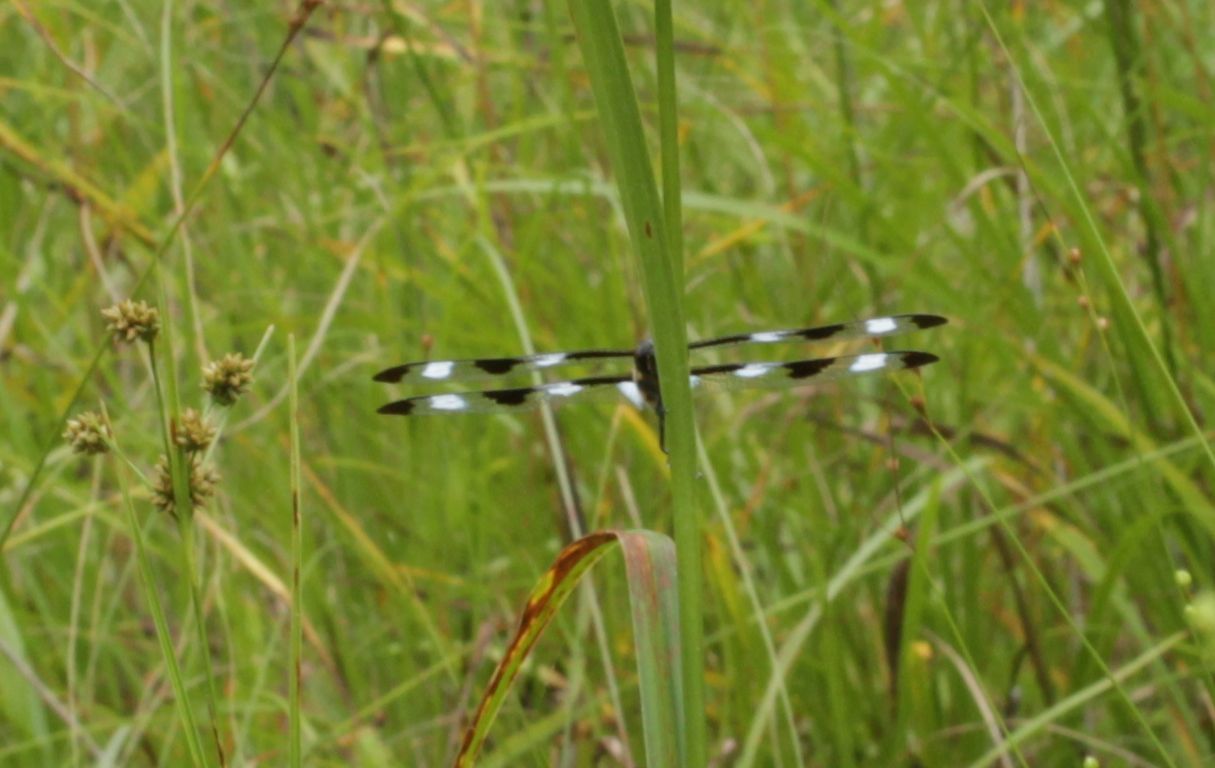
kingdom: Animalia
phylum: Arthropoda
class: Insecta
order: Odonata
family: Libellulidae
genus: Libellula
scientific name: Libellula pulchella
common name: Twelve-spotted skimmer
